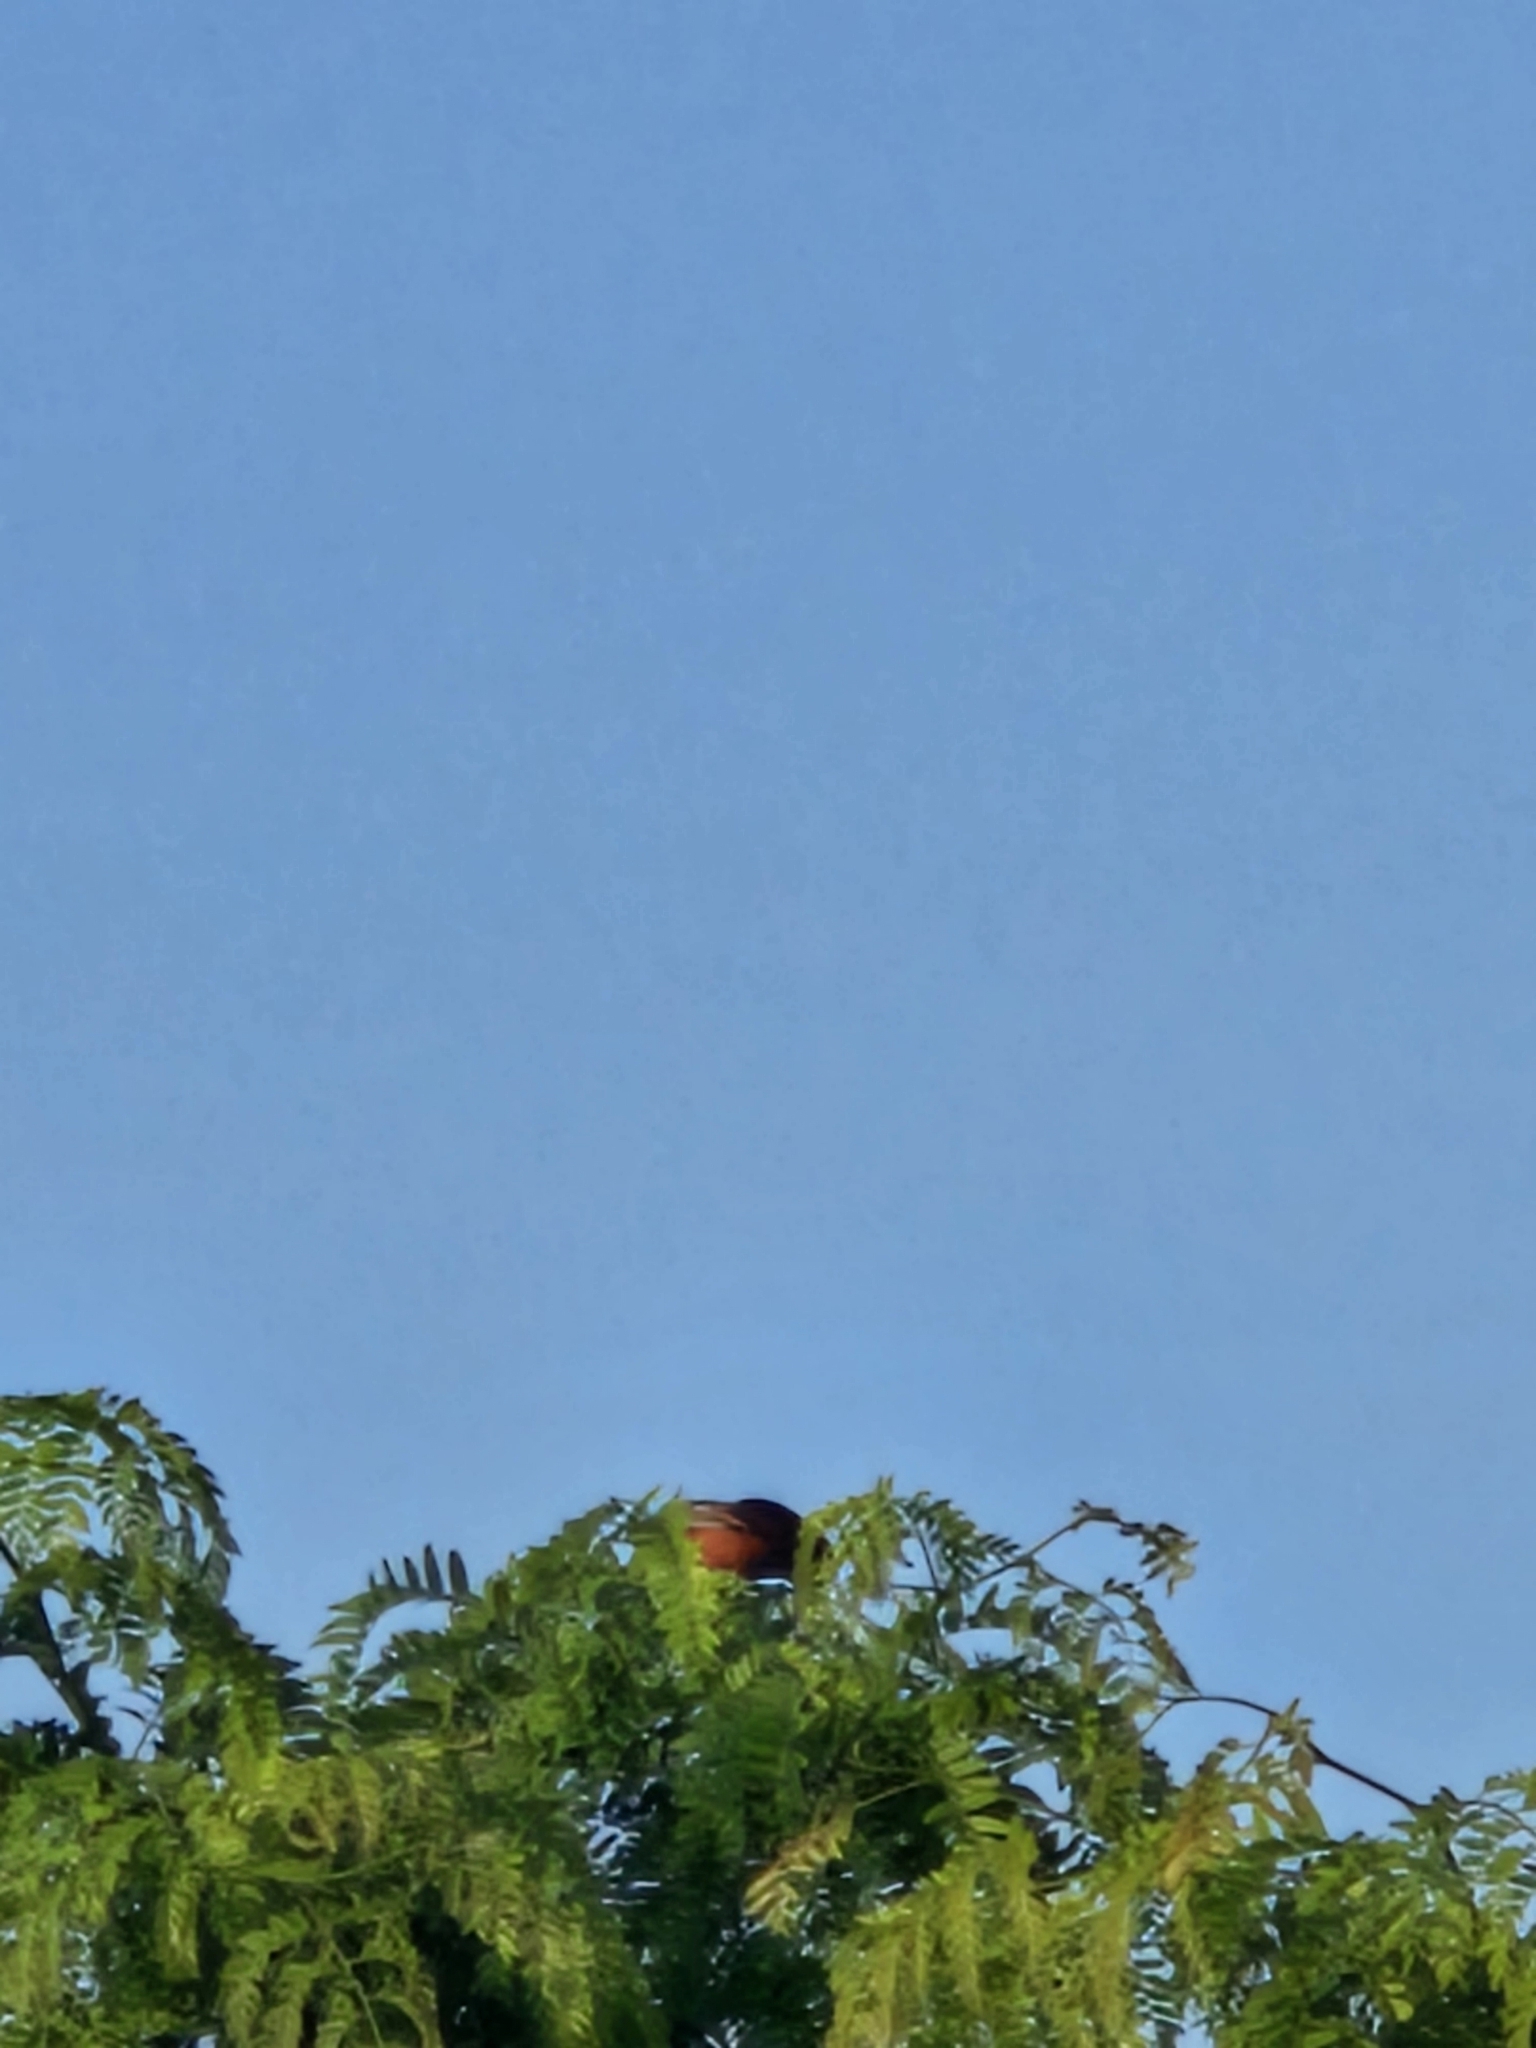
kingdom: Animalia
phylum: Chordata
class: Aves
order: Passeriformes
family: Icteridae
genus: Icterus
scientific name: Icterus spurius
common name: Orchard oriole
